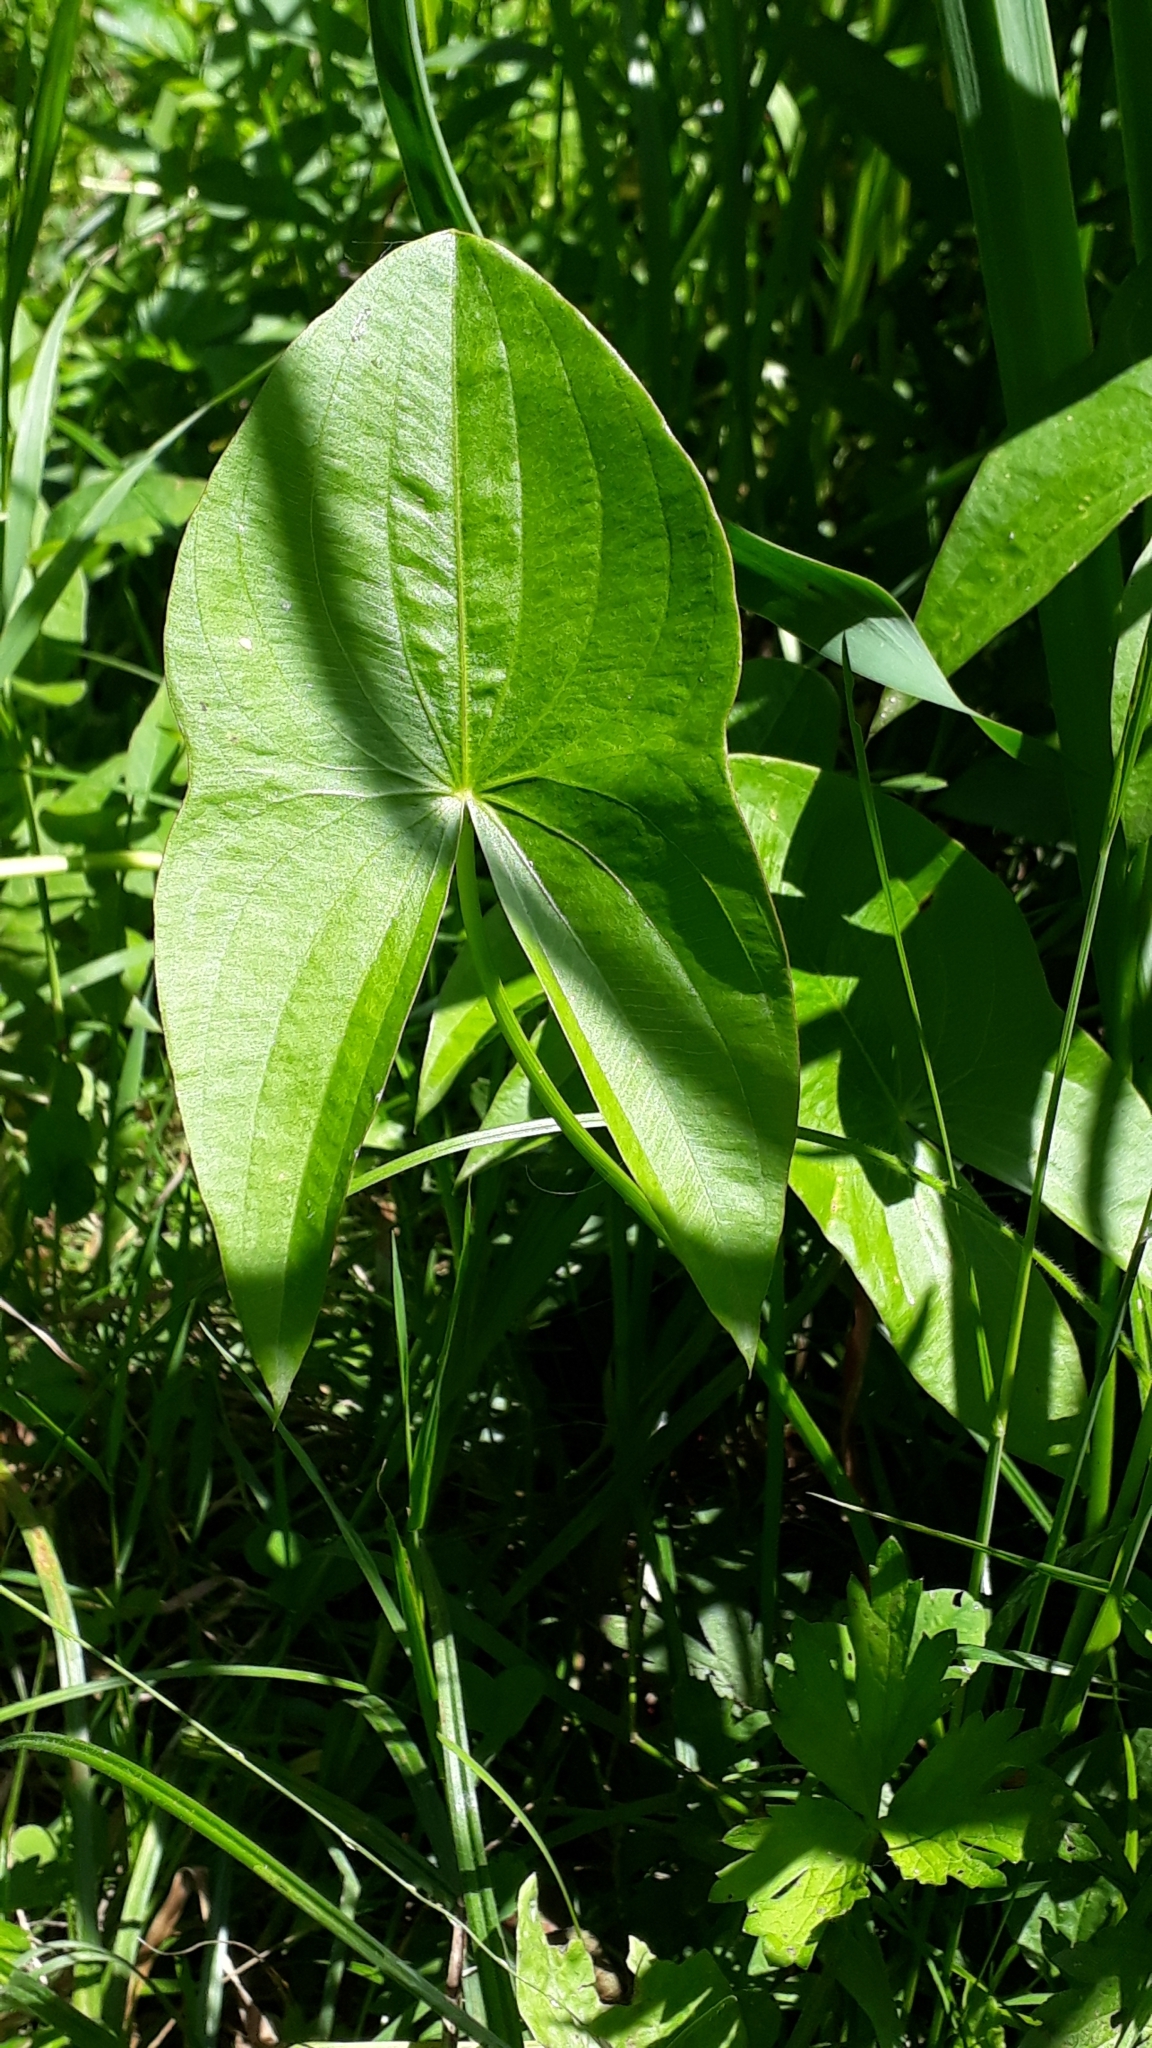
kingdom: Plantae
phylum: Tracheophyta
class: Liliopsida
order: Alismatales
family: Alismataceae
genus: Sagittaria
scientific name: Sagittaria latifolia
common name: Duck-potato
